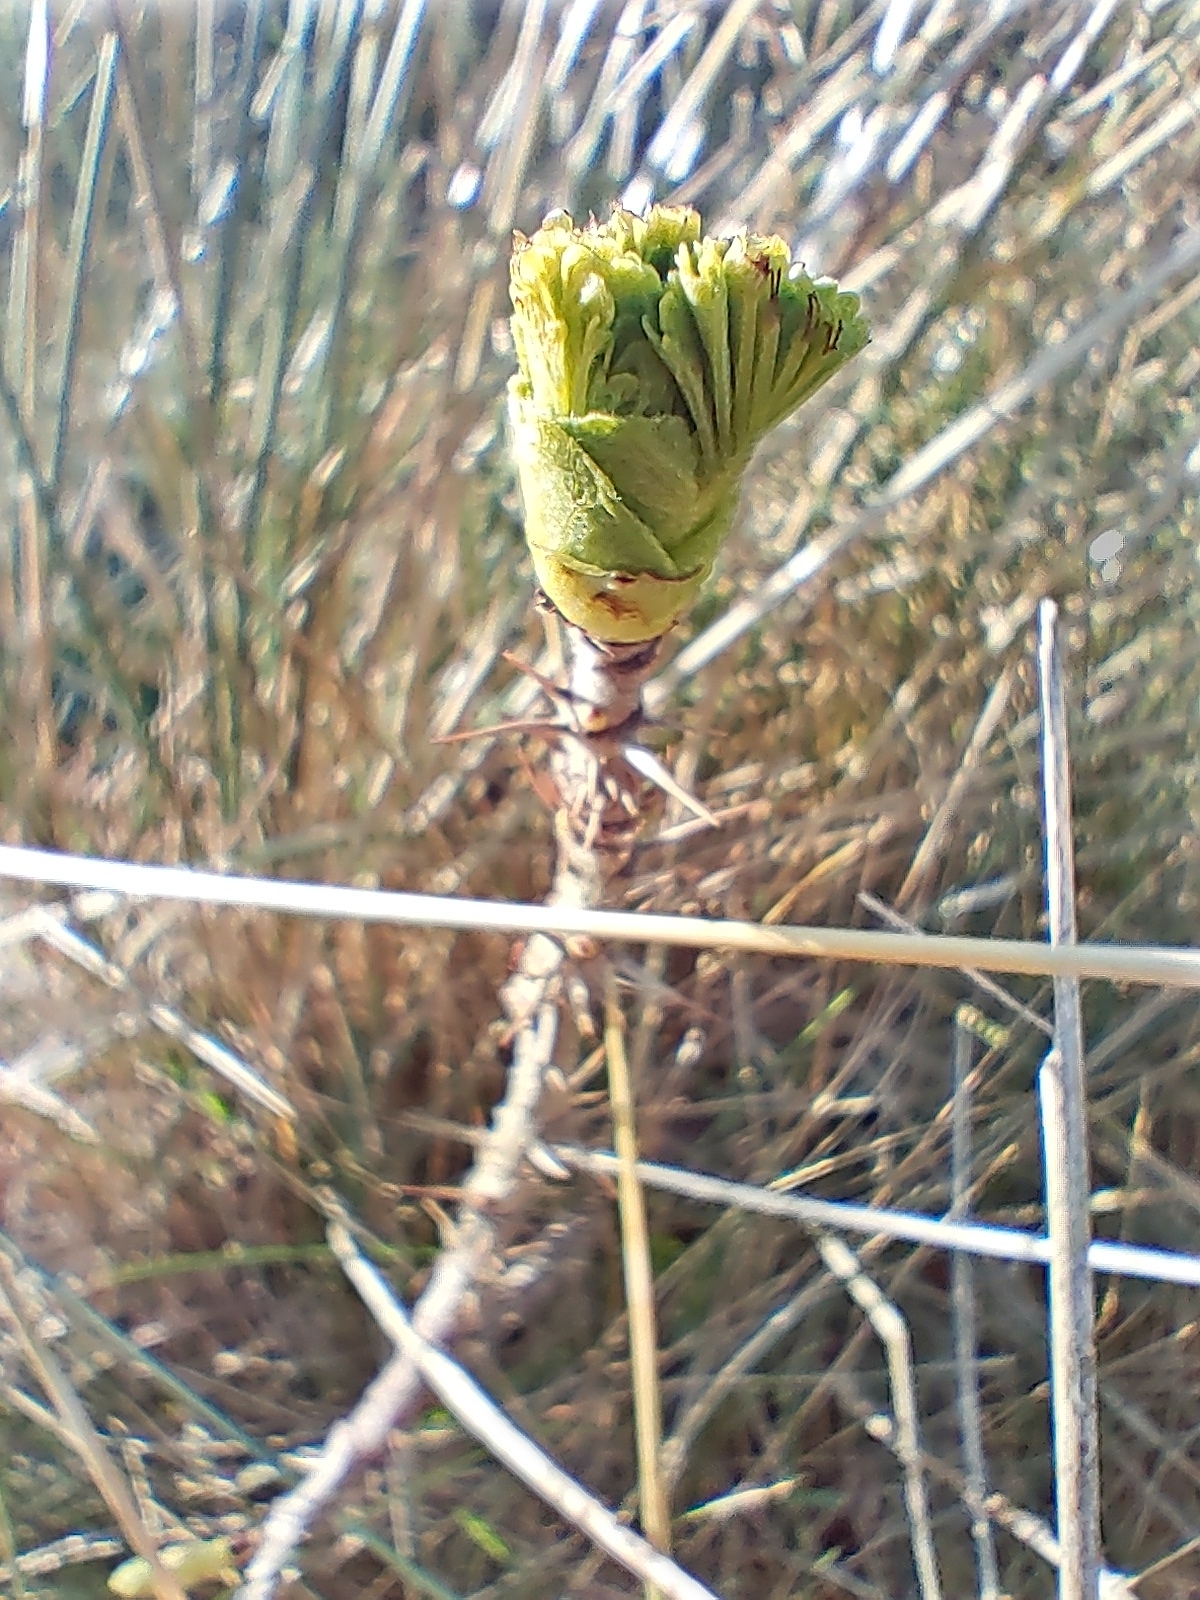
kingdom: Plantae
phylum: Tracheophyta
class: Magnoliopsida
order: Rosales
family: Rosaceae
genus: Rosa
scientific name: Rosa rugosa
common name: Japanese rose
